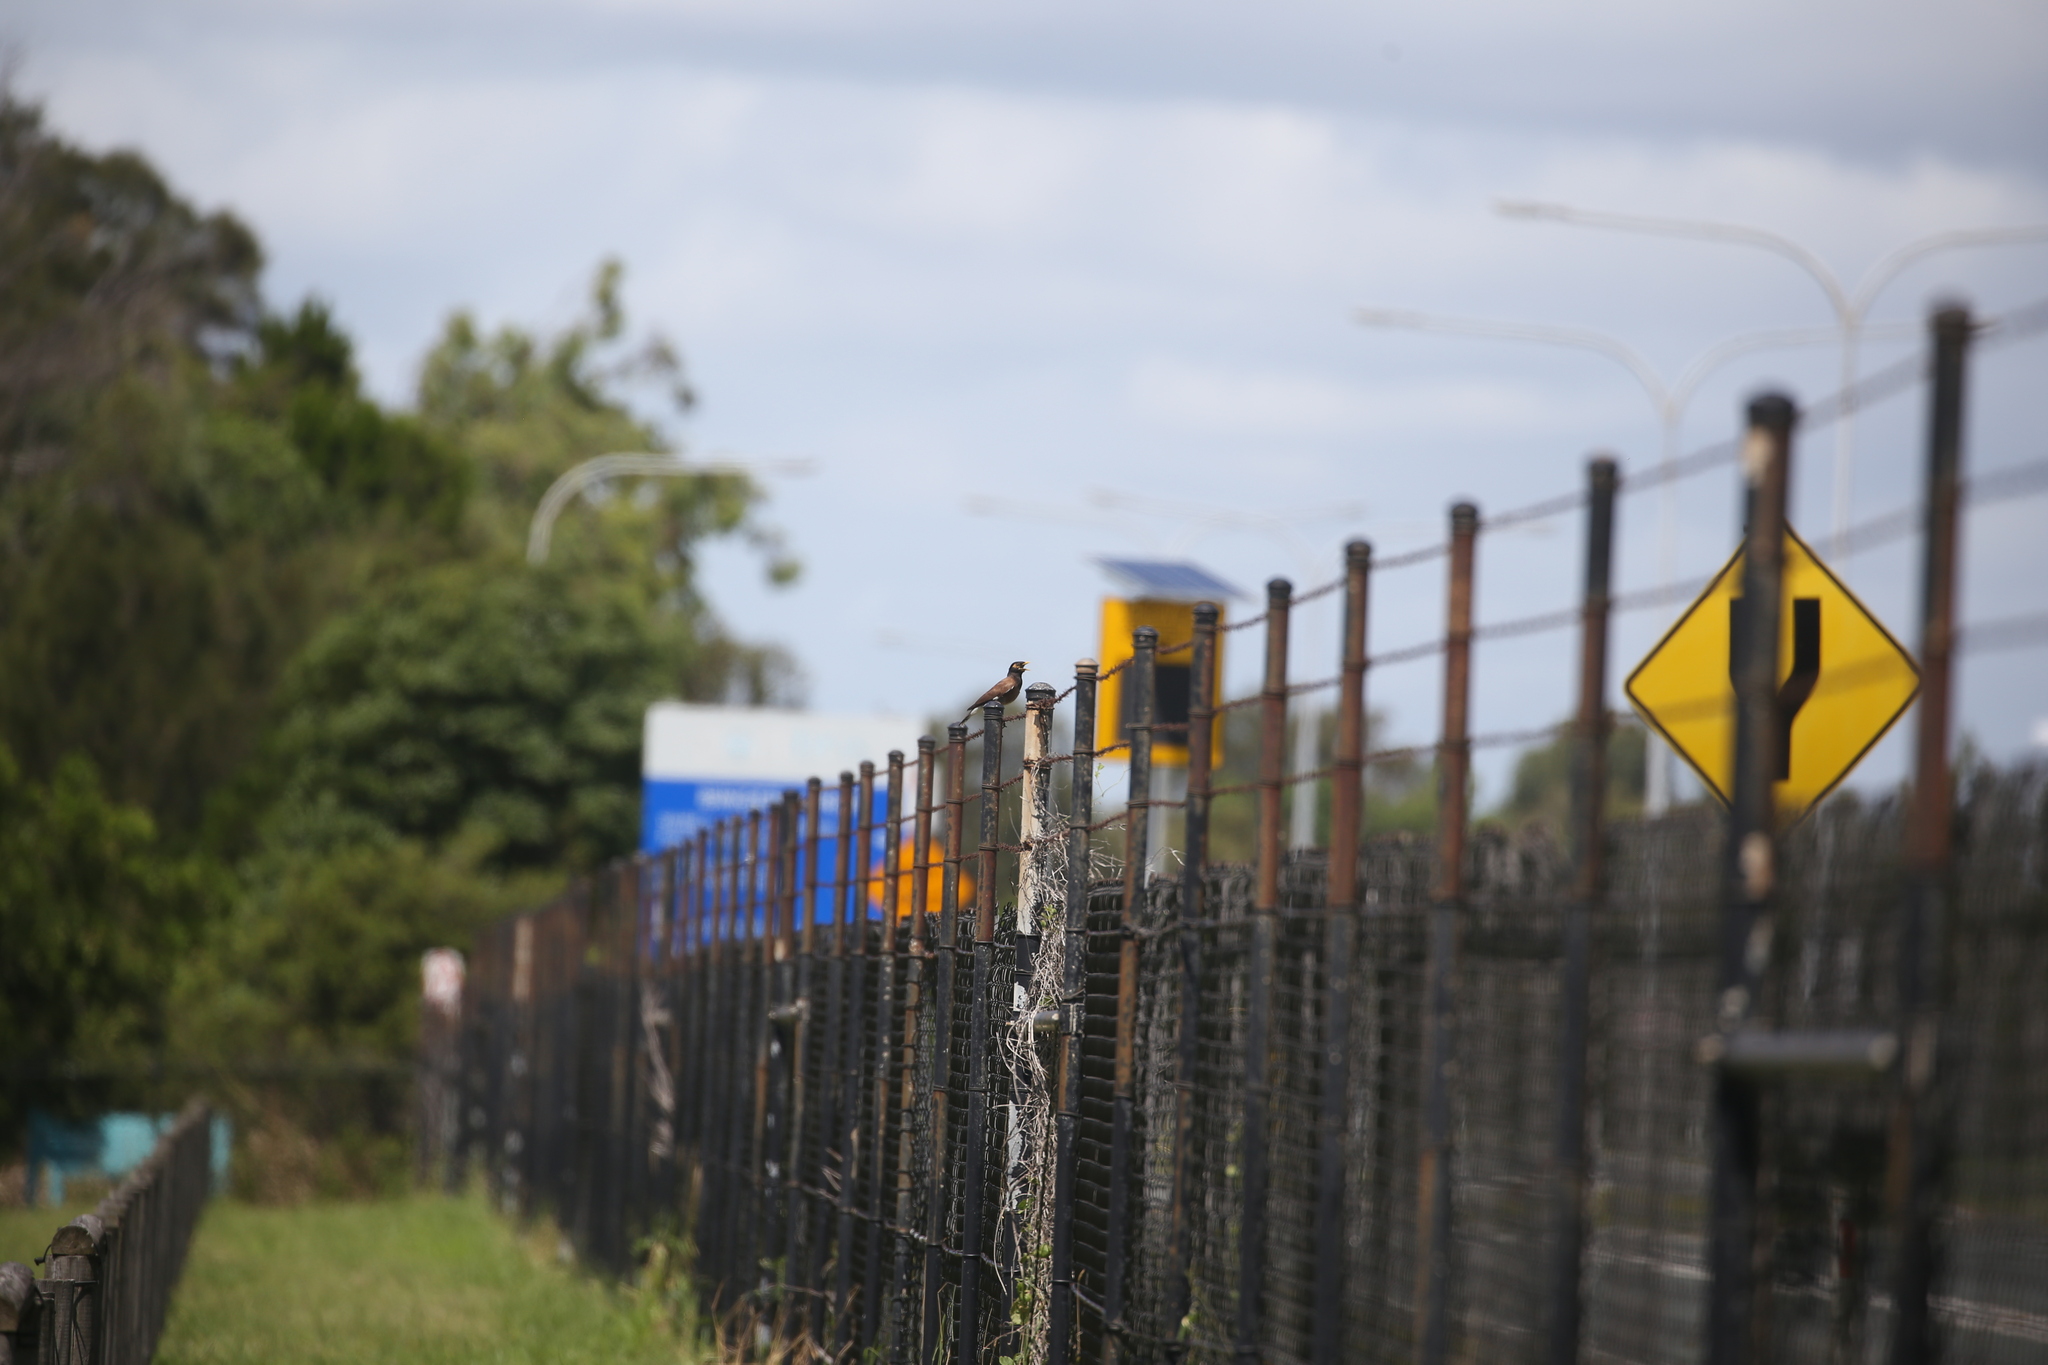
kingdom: Animalia
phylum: Chordata
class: Aves
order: Passeriformes
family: Sturnidae
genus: Acridotheres
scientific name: Acridotheres tristis
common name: Common myna
